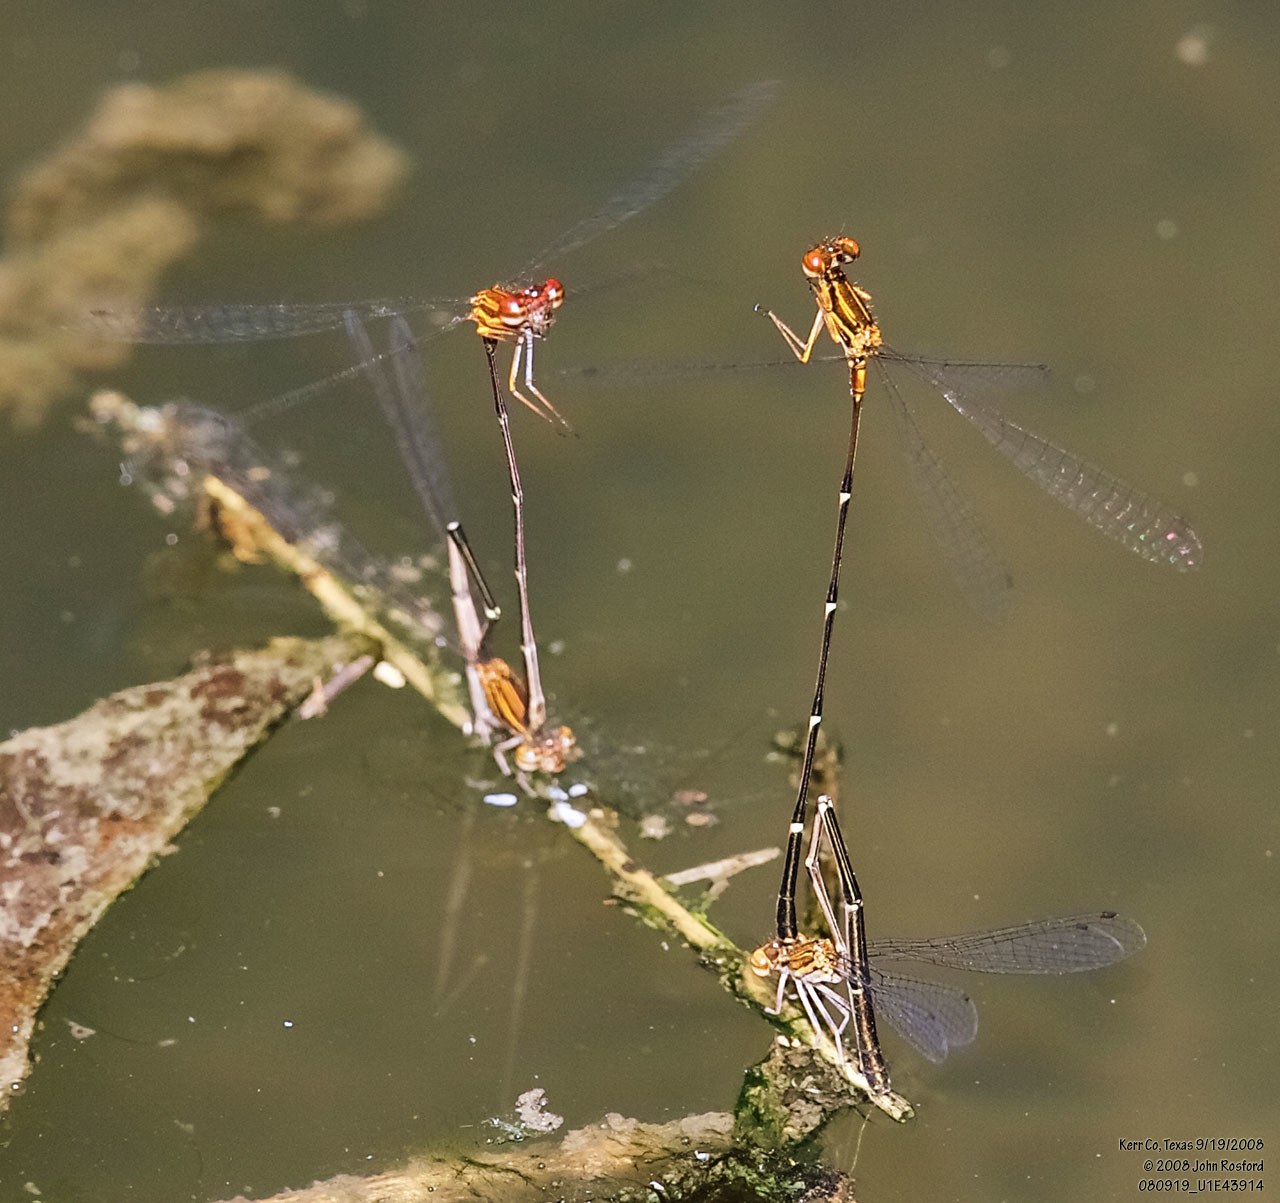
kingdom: Animalia
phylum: Arthropoda
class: Insecta
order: Odonata
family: Coenagrionidae
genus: Protoneura
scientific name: Protoneura cara
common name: Orange-striped threadtail
